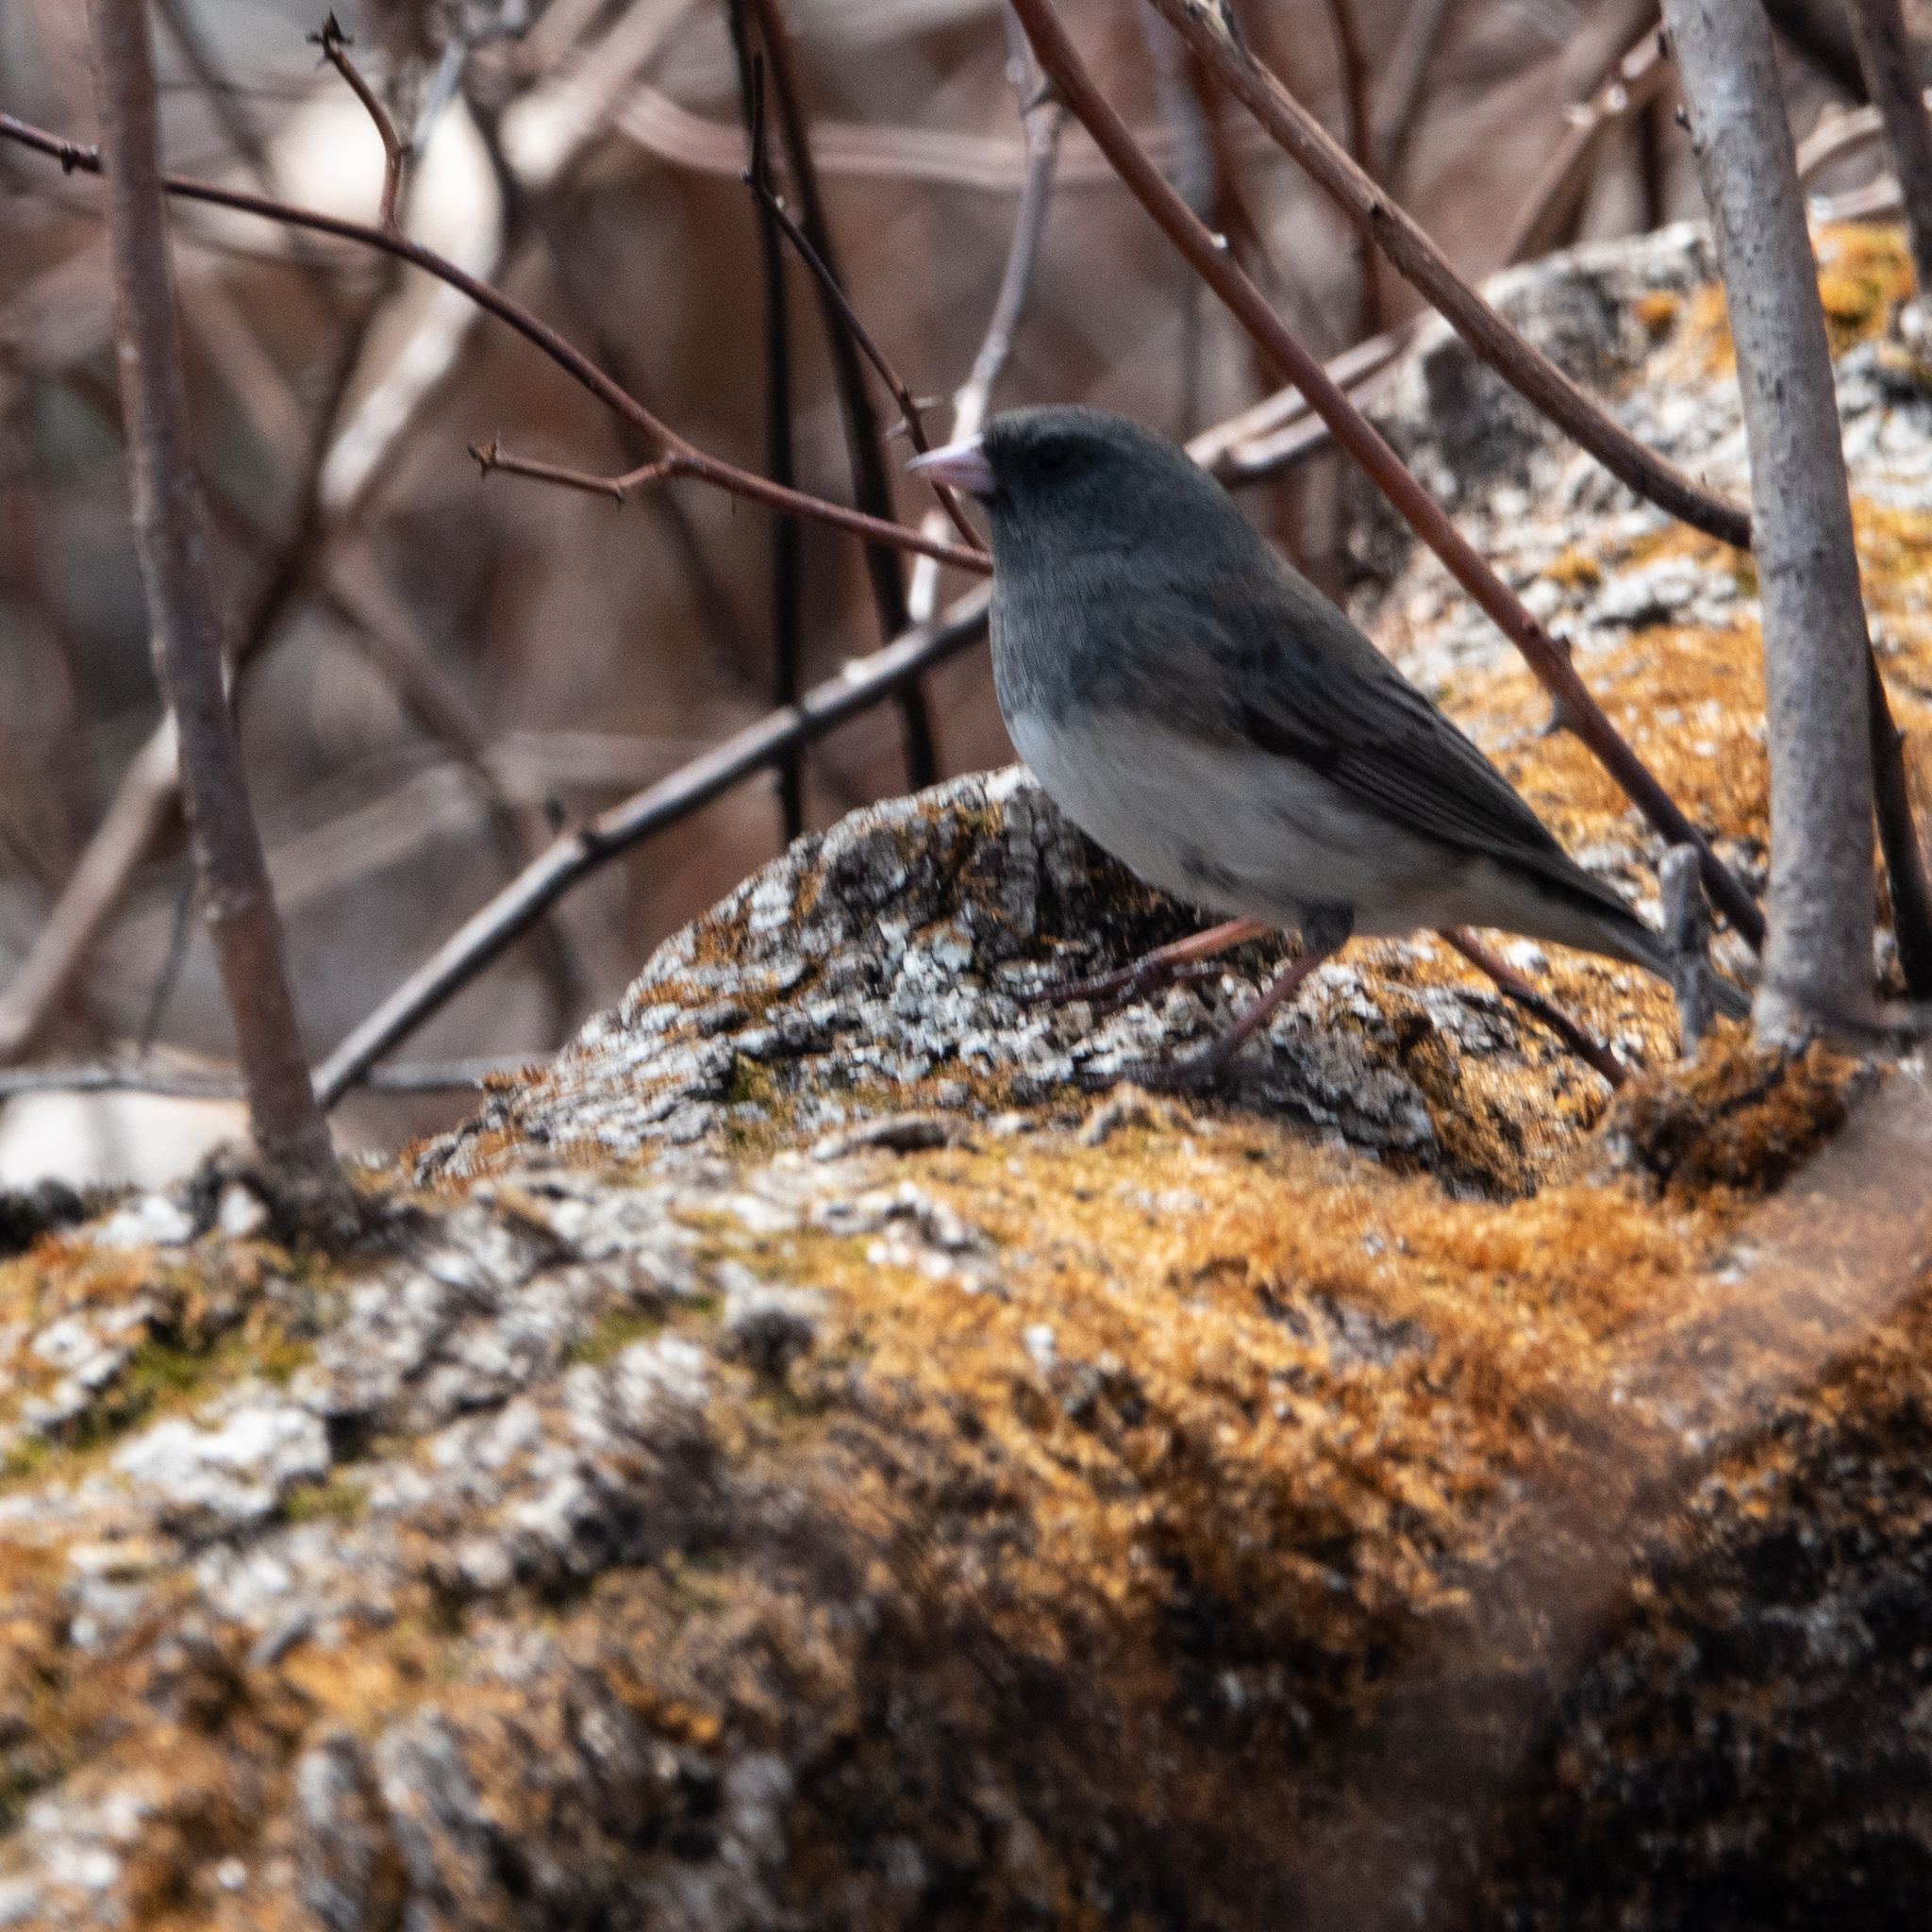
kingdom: Animalia
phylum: Chordata
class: Aves
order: Passeriformes
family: Passerellidae
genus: Junco
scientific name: Junco hyemalis
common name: Dark-eyed junco
